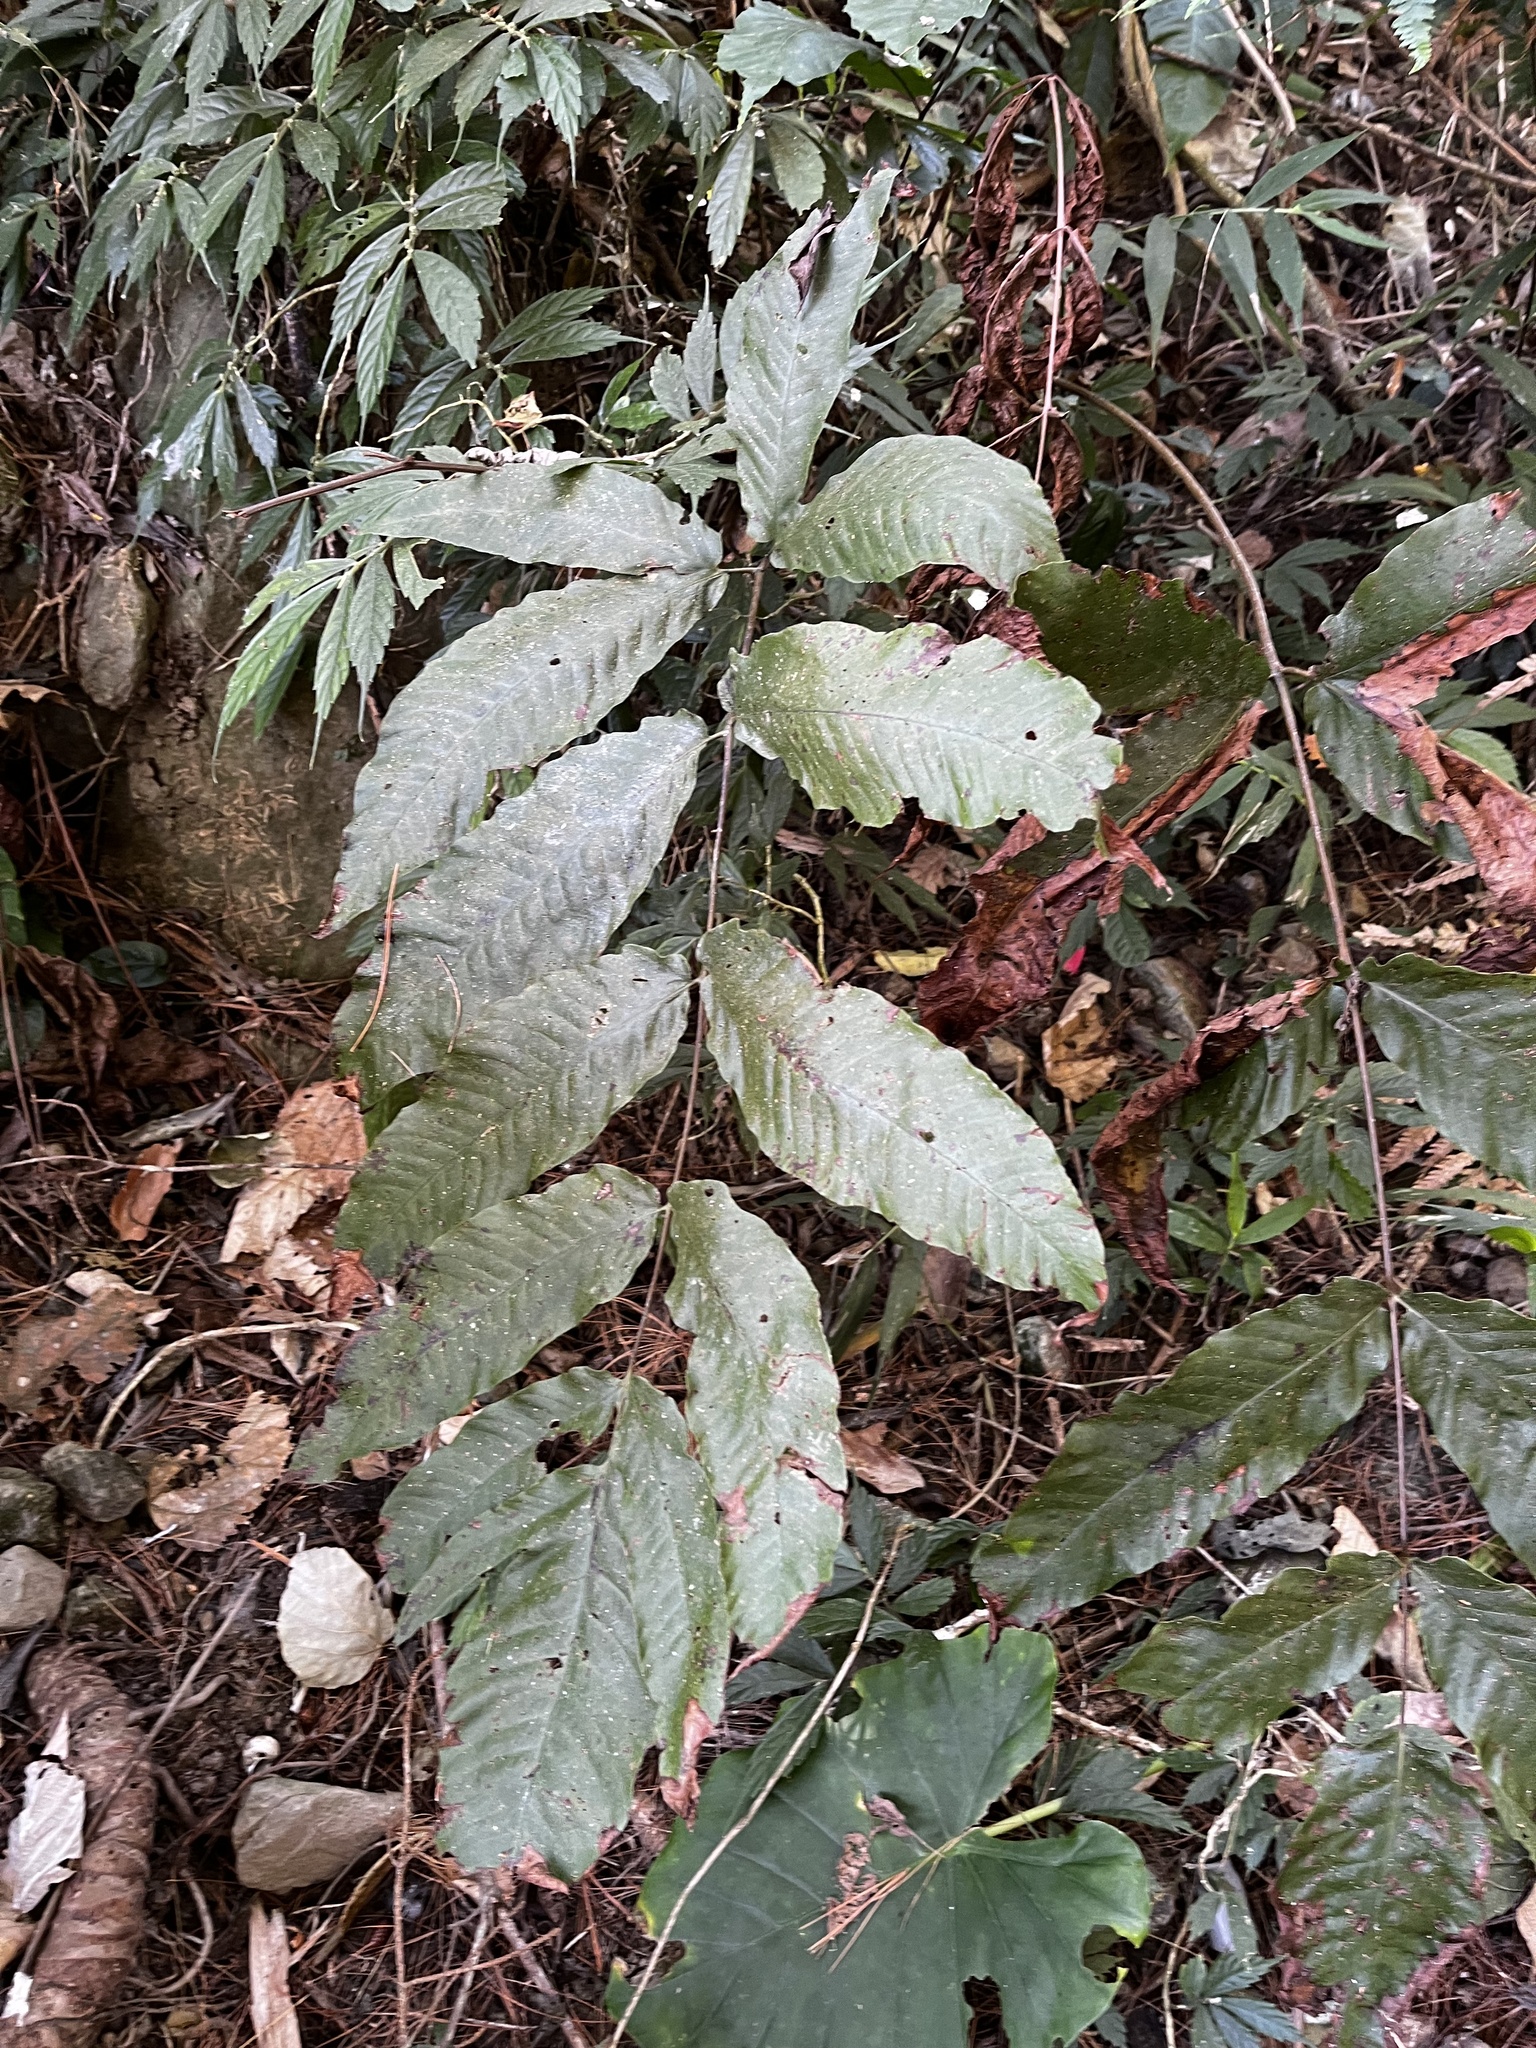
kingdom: Plantae
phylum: Tracheophyta
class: Polypodiopsida
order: Polypodiales
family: Tectariaceae
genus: Tectaria
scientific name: Tectaria polymorpha
